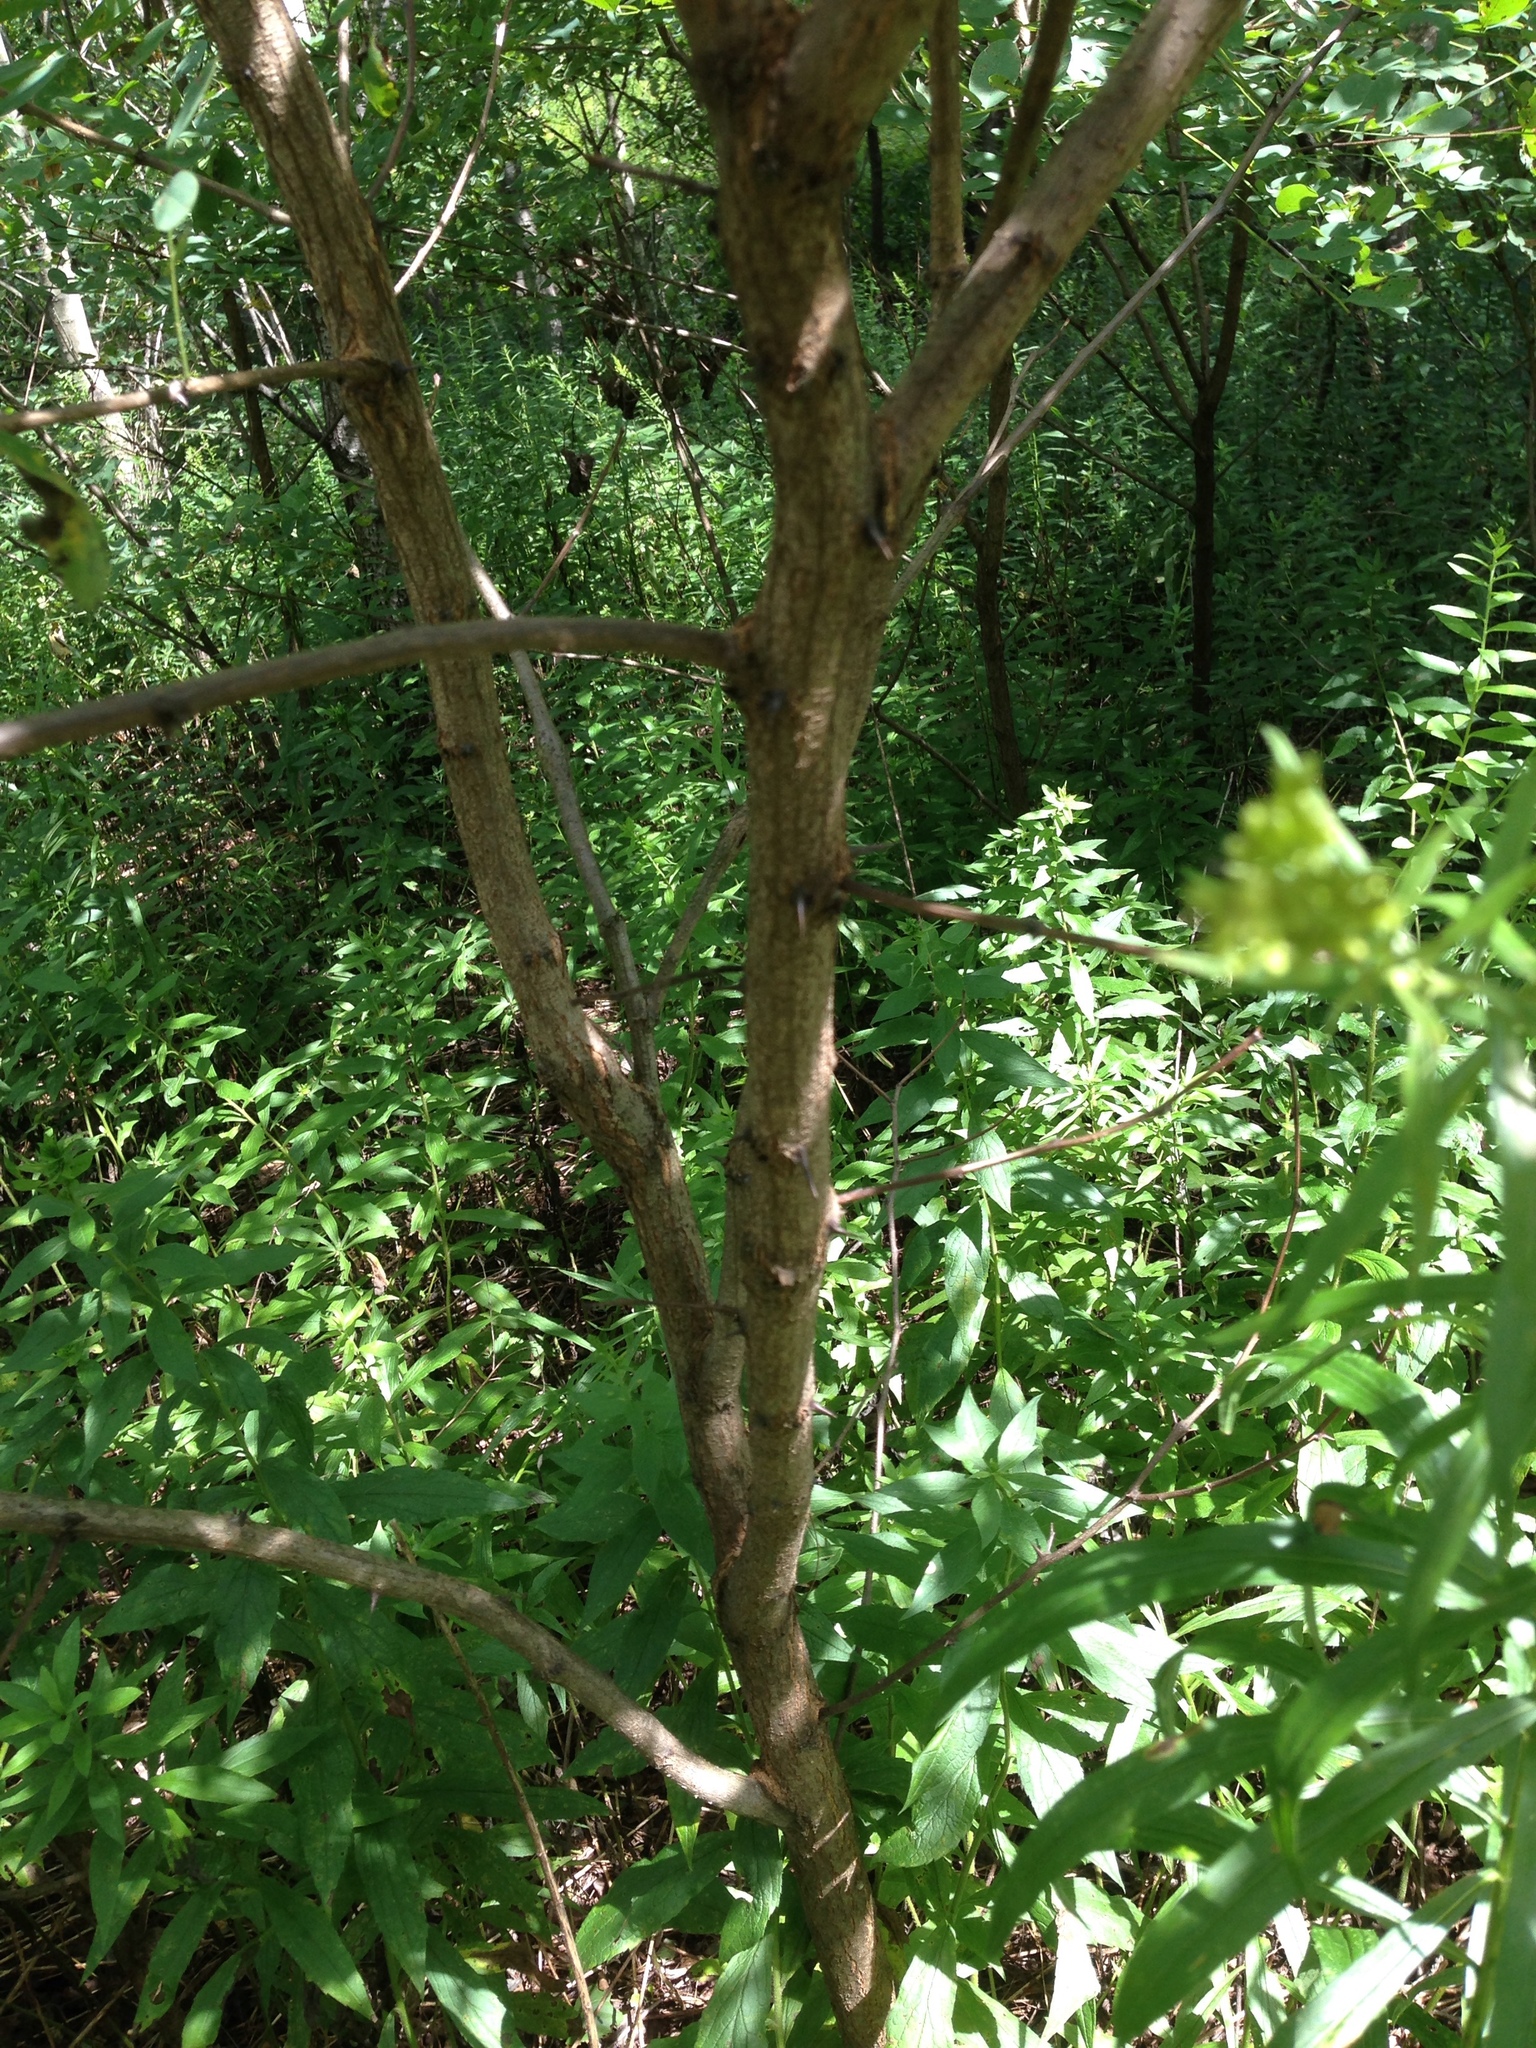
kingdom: Plantae
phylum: Tracheophyta
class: Magnoliopsida
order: Fabales
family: Fabaceae
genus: Robinia
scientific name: Robinia pseudoacacia
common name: Black locust
